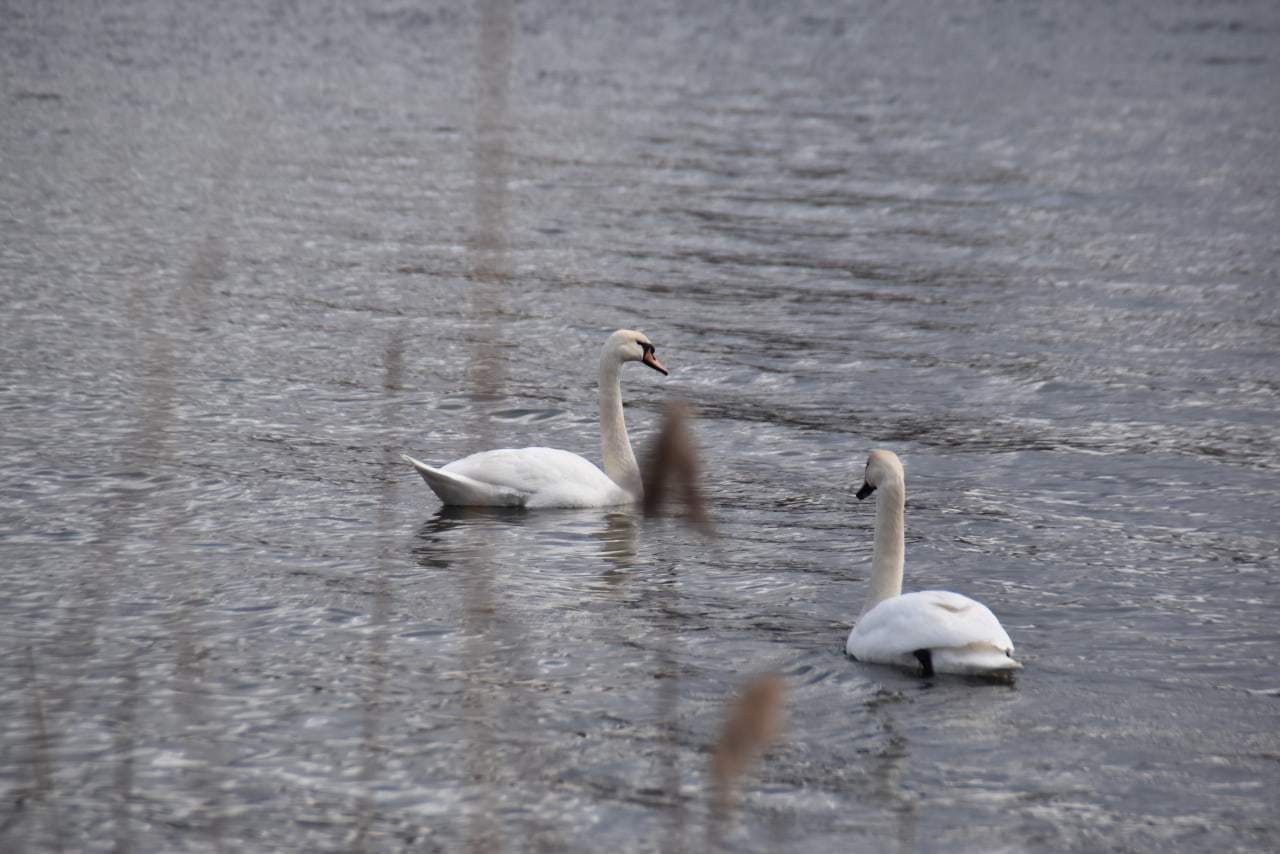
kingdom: Animalia
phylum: Chordata
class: Aves
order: Anseriformes
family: Anatidae
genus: Cygnus
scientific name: Cygnus olor
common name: Mute swan
